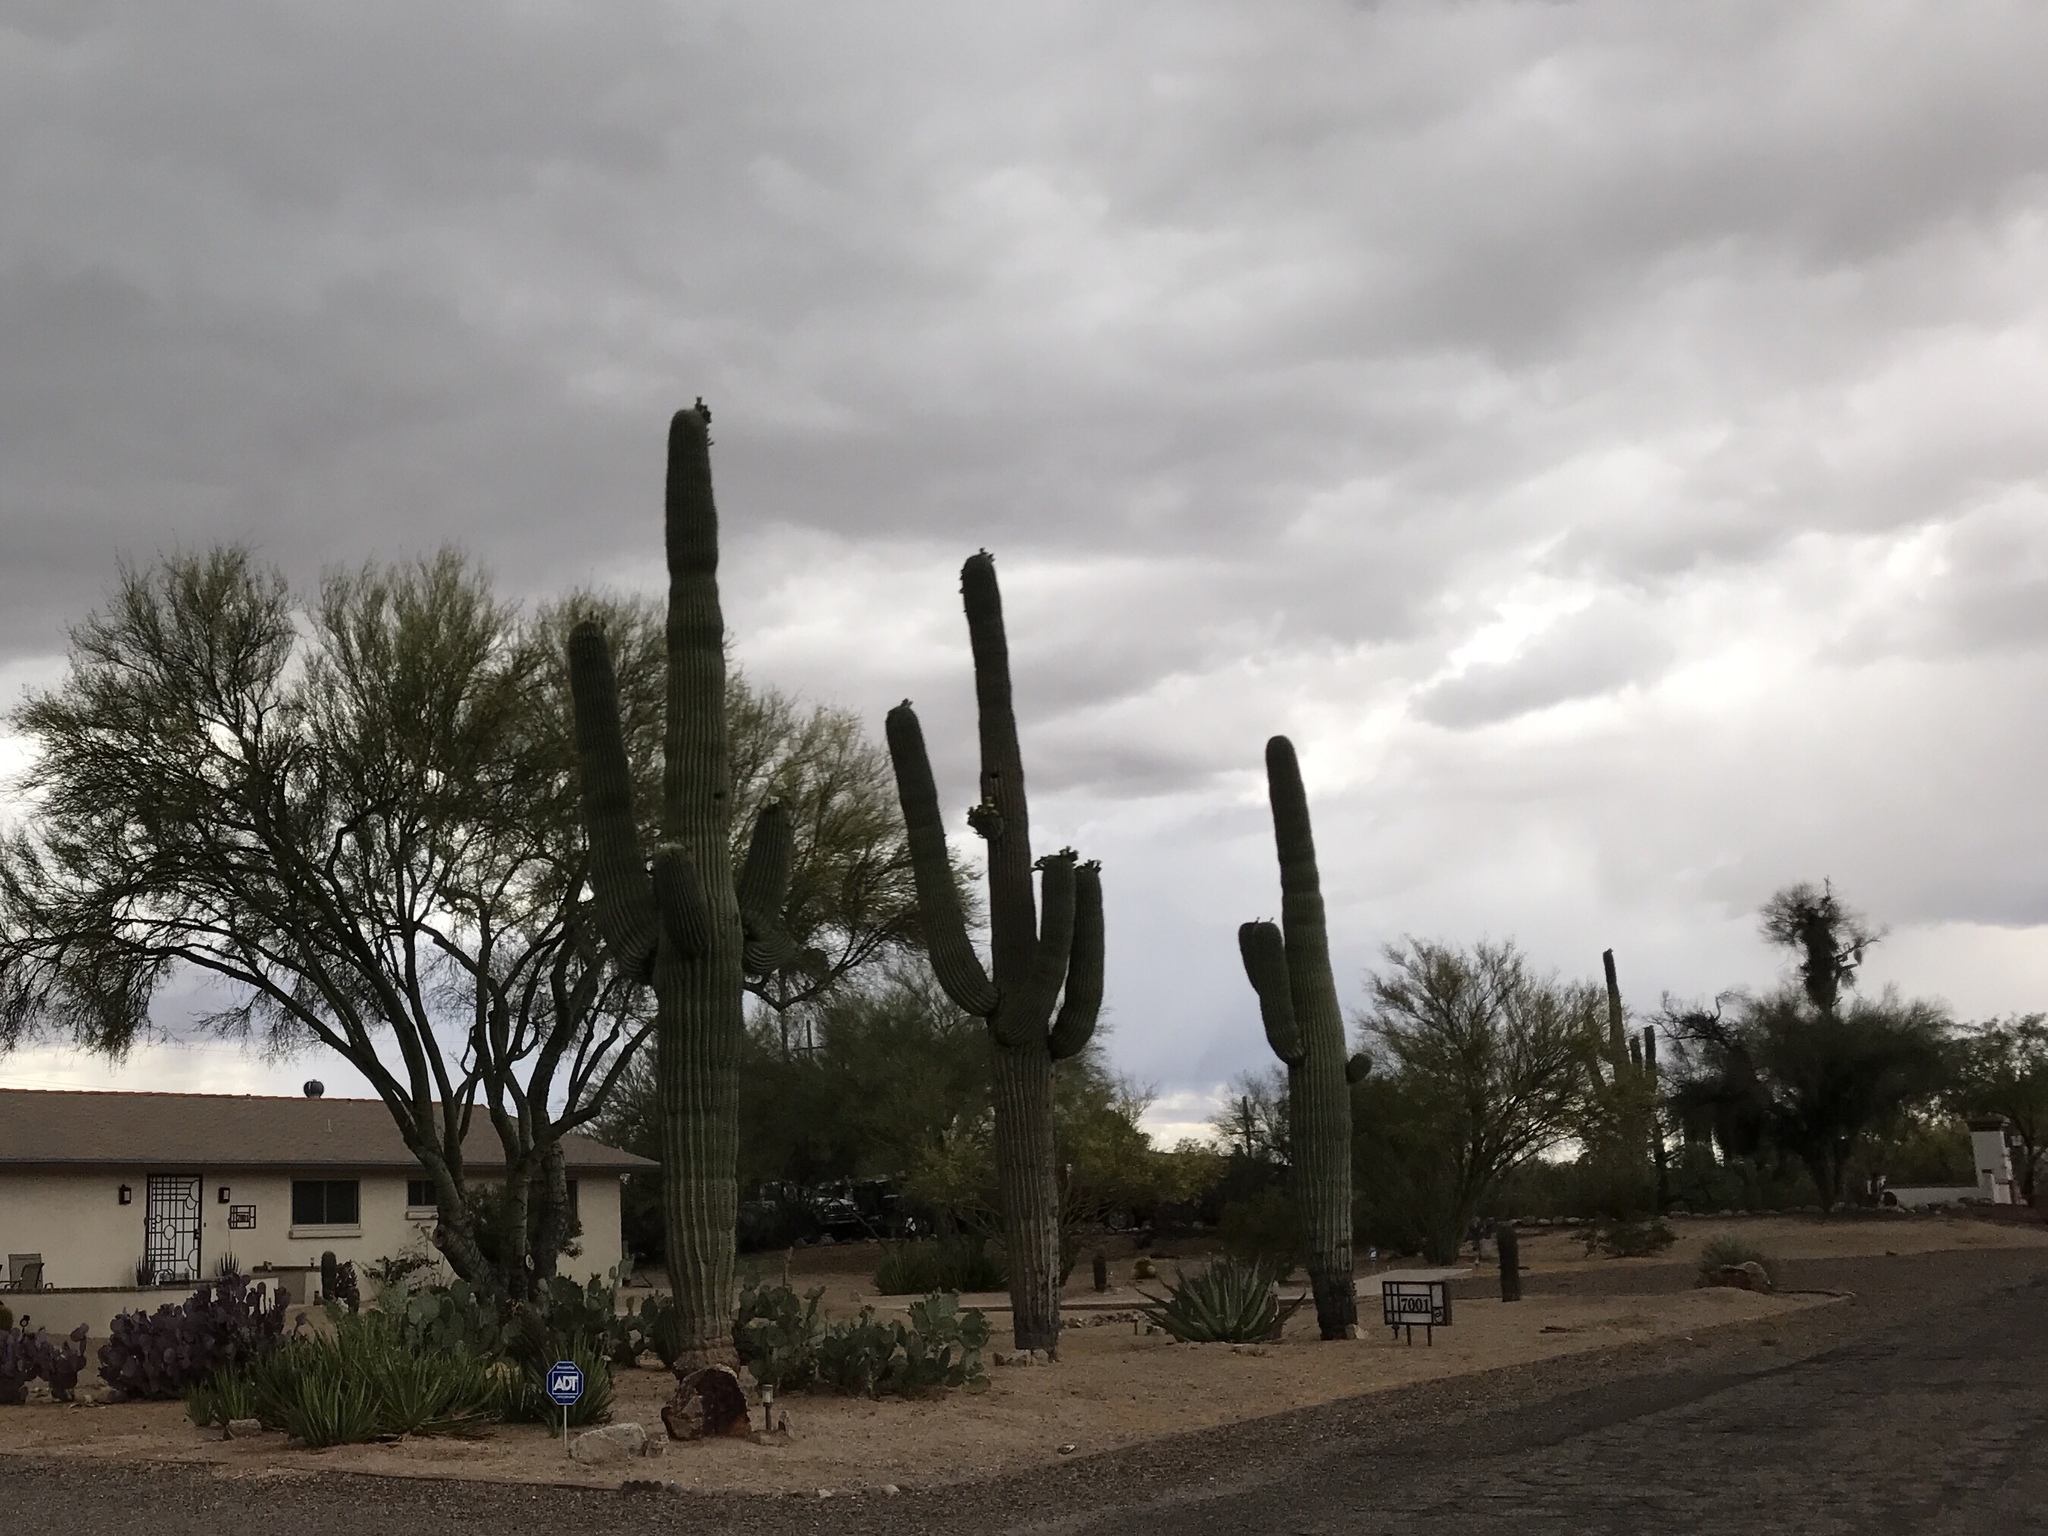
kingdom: Plantae
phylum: Tracheophyta
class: Magnoliopsida
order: Caryophyllales
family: Cactaceae
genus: Carnegiea
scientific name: Carnegiea gigantea
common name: Saguaro
